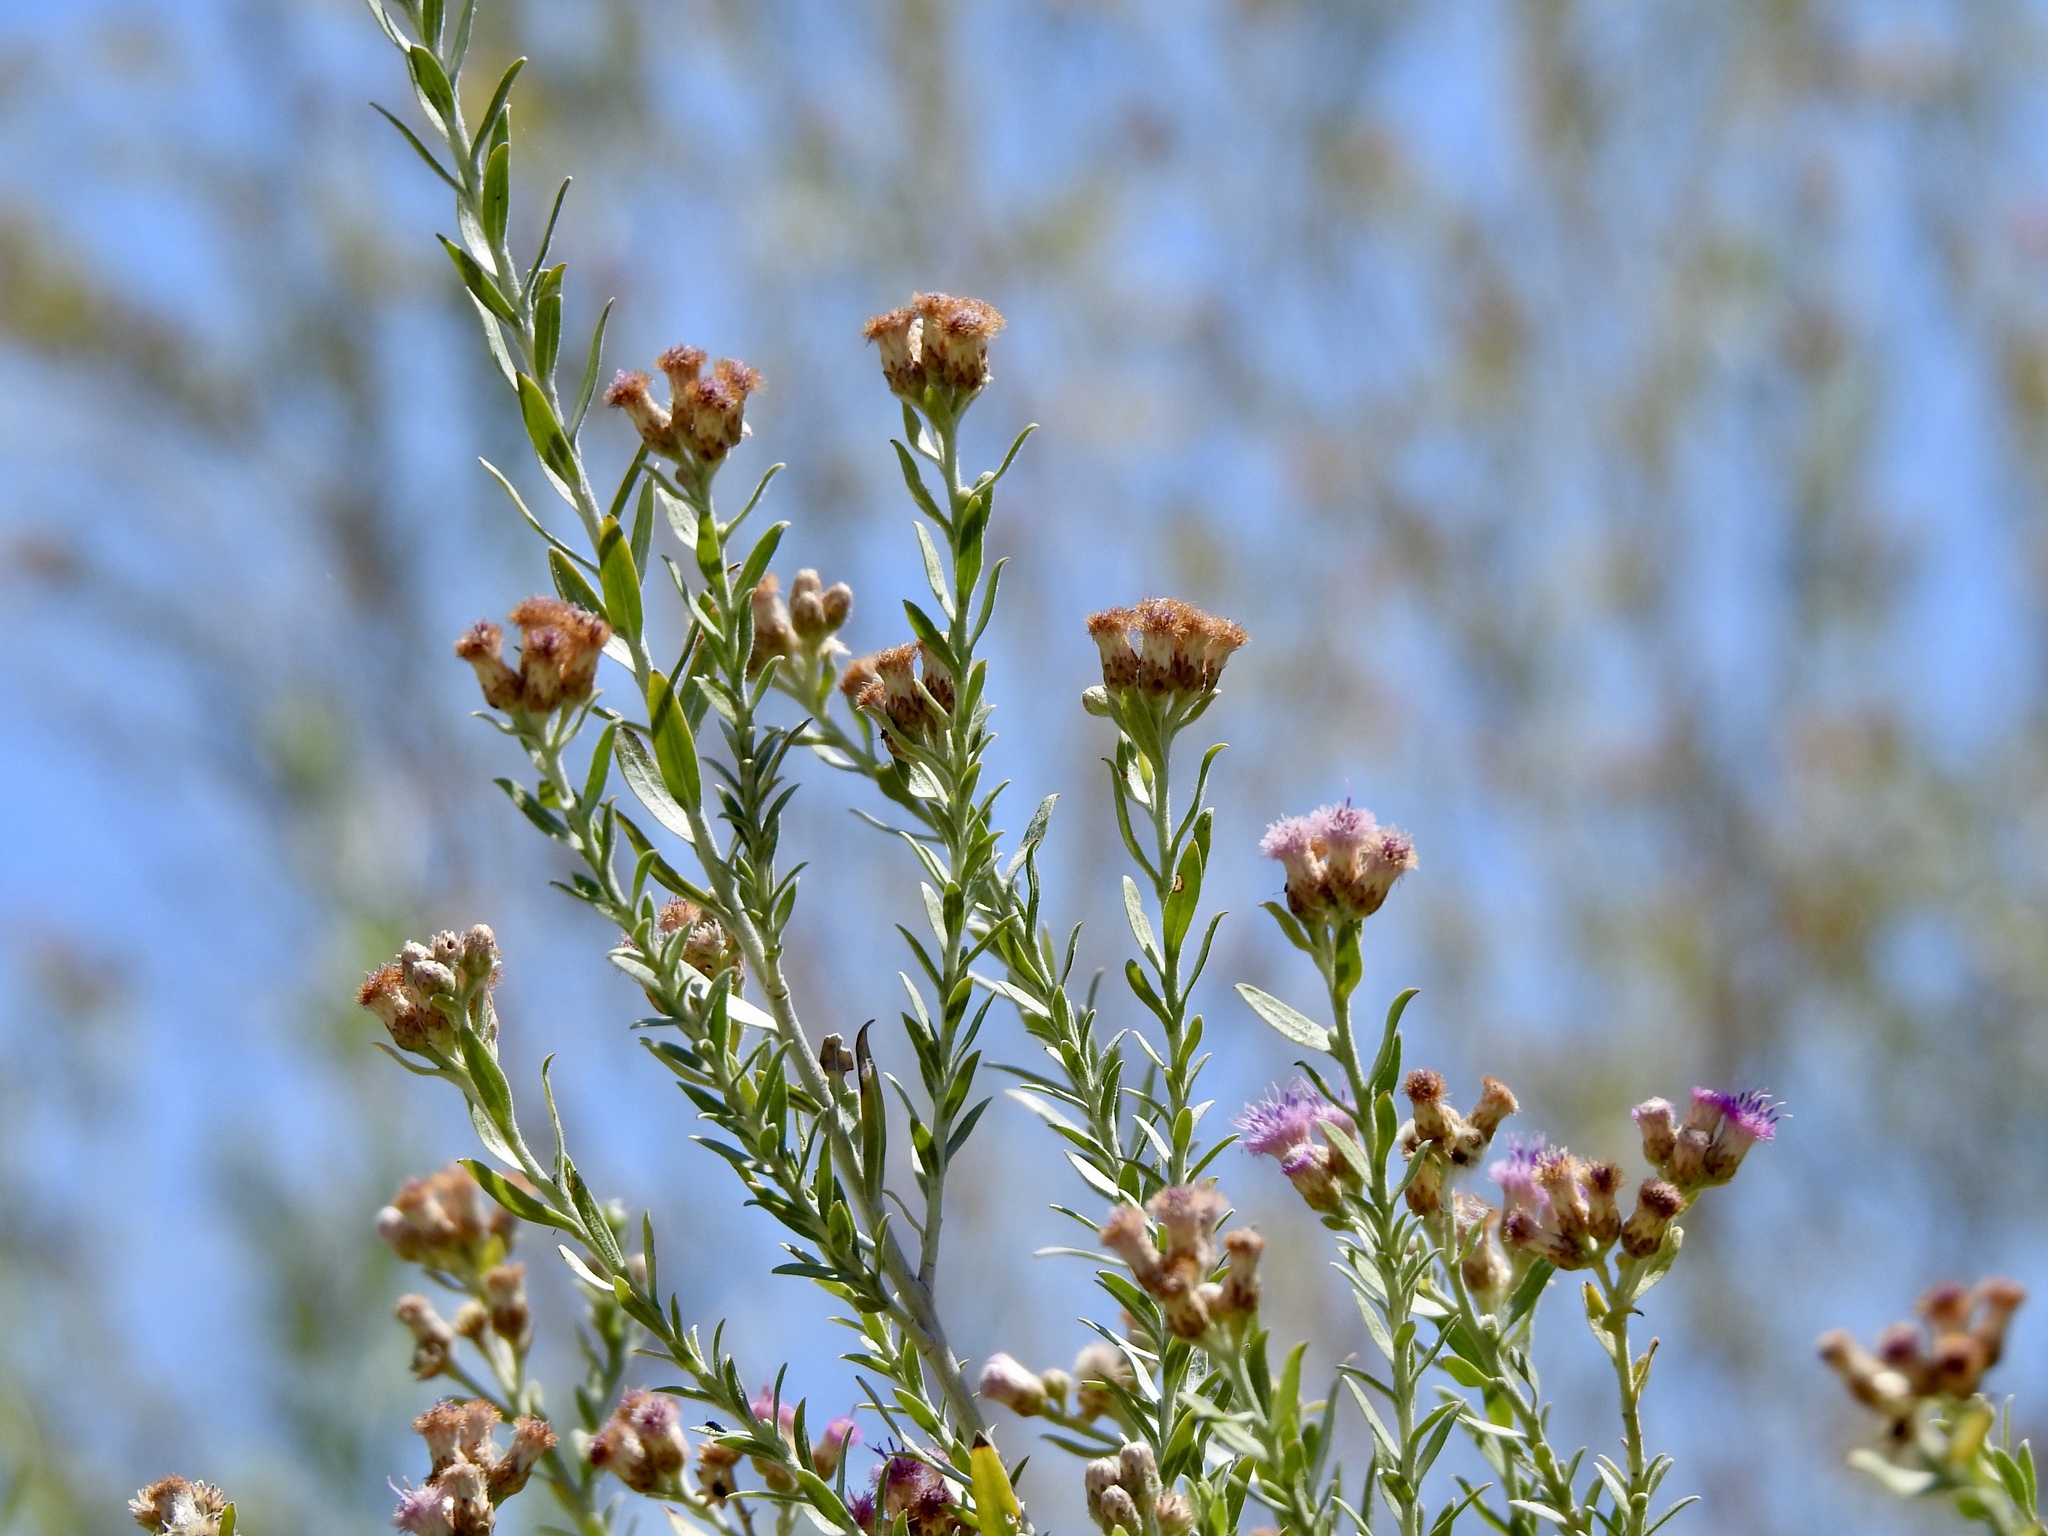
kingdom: Plantae
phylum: Tracheophyta
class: Magnoliopsida
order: Asterales
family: Asteraceae
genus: Pluchea
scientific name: Pluchea sericea
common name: Arrow-weed
